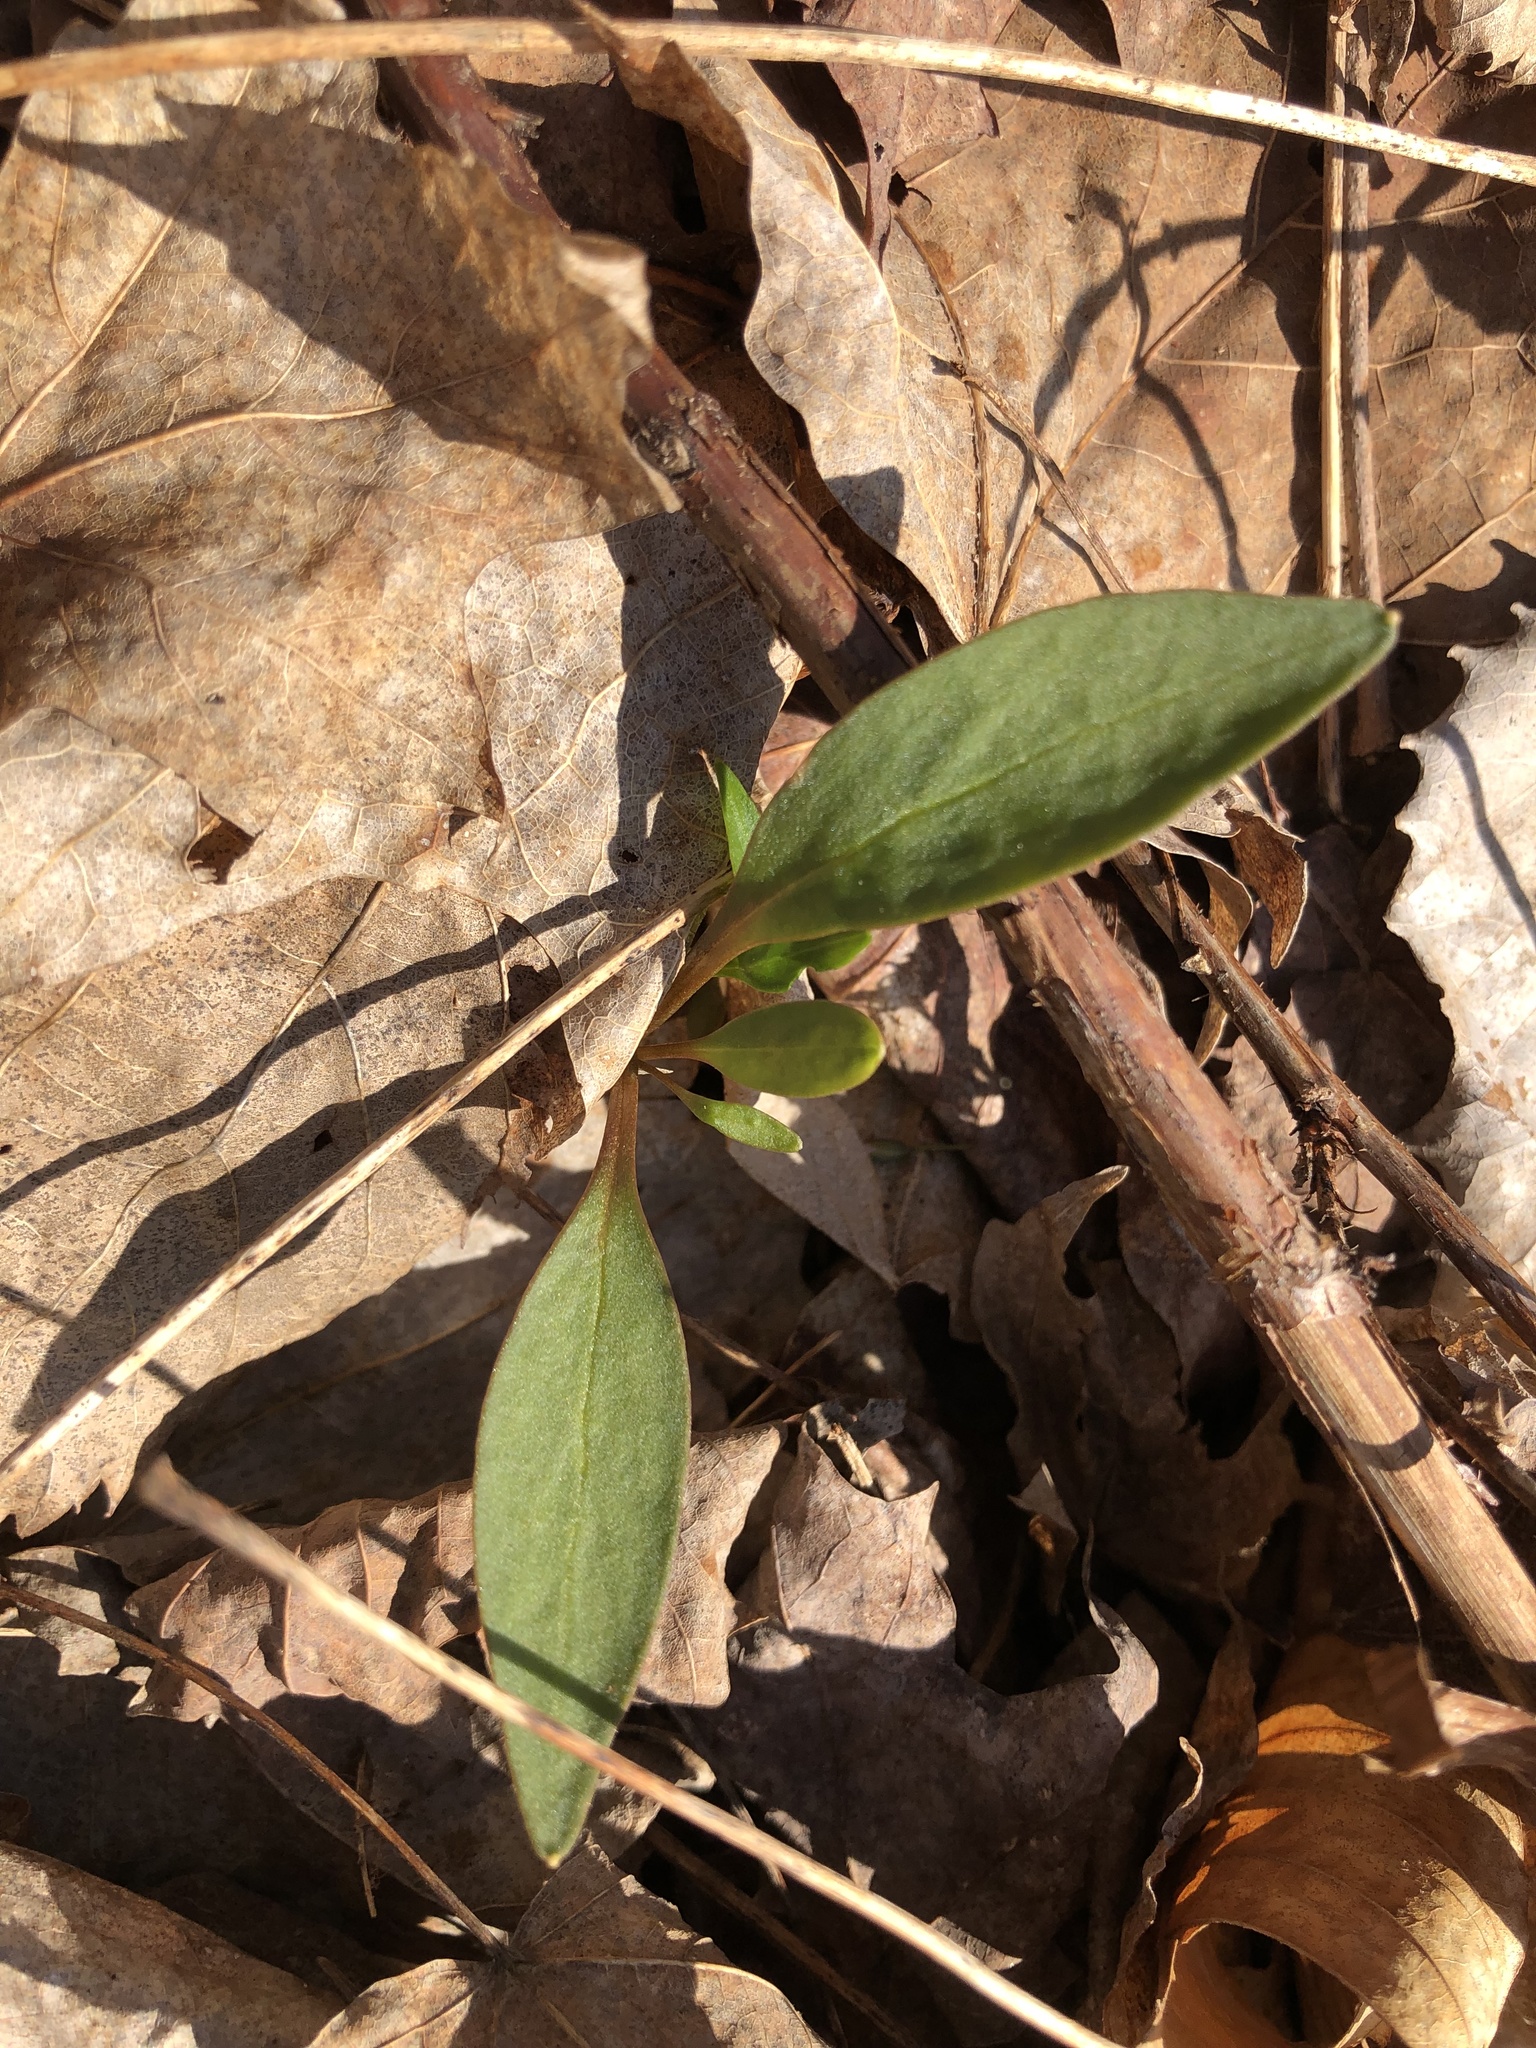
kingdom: Plantae
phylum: Tracheophyta
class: Magnoliopsida
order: Caryophyllales
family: Montiaceae
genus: Claytonia
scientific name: Claytonia caroliniana
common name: Carolina spring beauty
